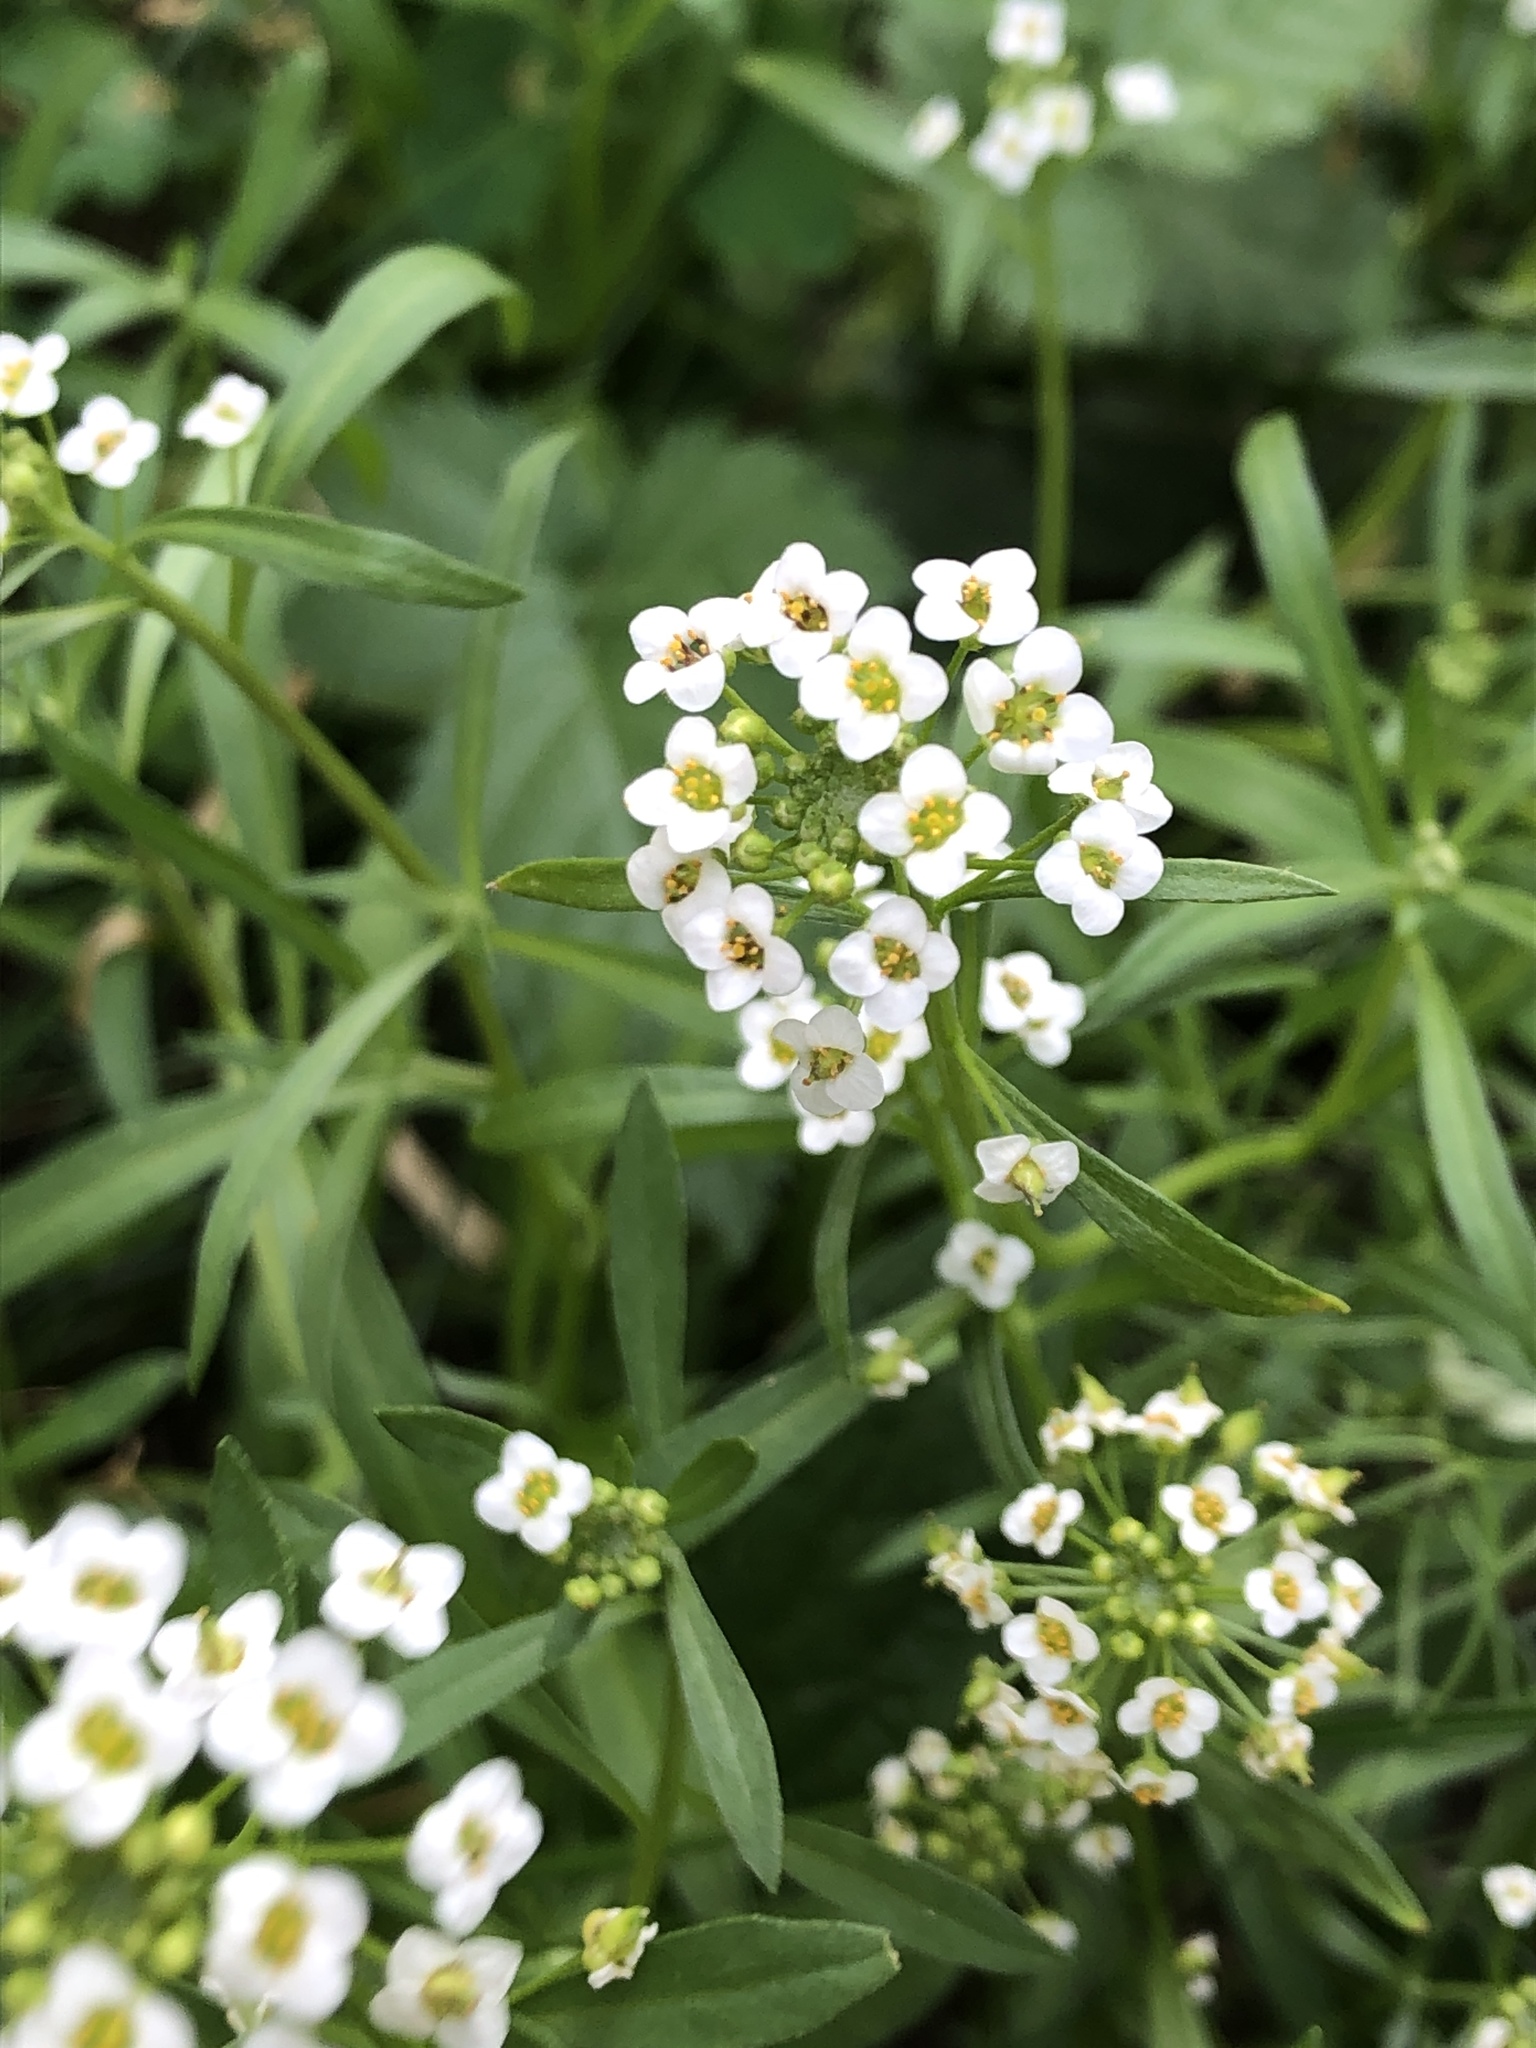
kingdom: Plantae
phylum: Tracheophyta
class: Magnoliopsida
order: Brassicales
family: Brassicaceae
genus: Lobularia
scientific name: Lobularia maritima
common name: Sweet alison
